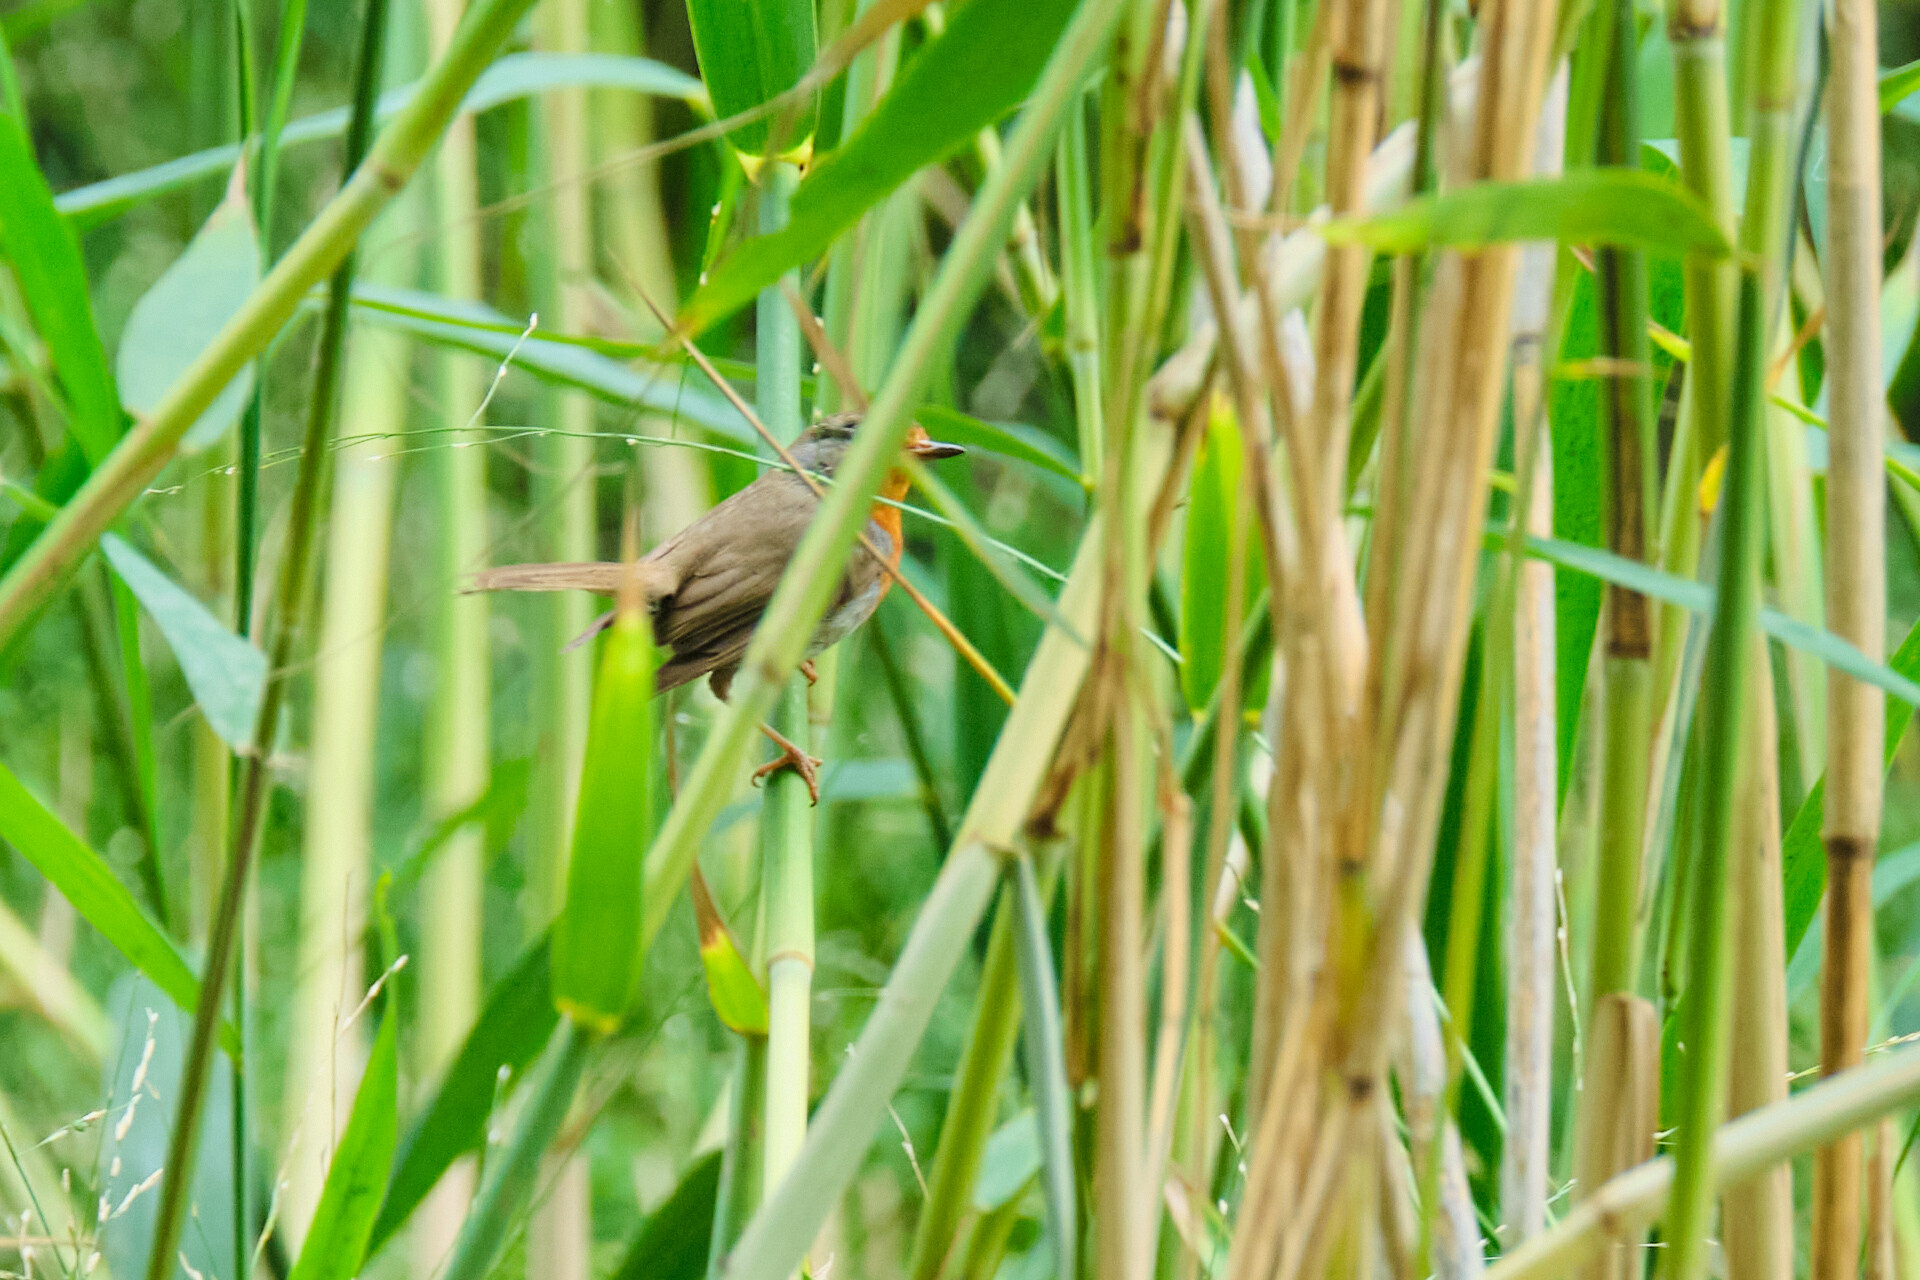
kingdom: Animalia
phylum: Chordata
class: Aves
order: Passeriformes
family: Muscicapidae
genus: Erithacus
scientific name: Erithacus rubecula
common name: European robin
